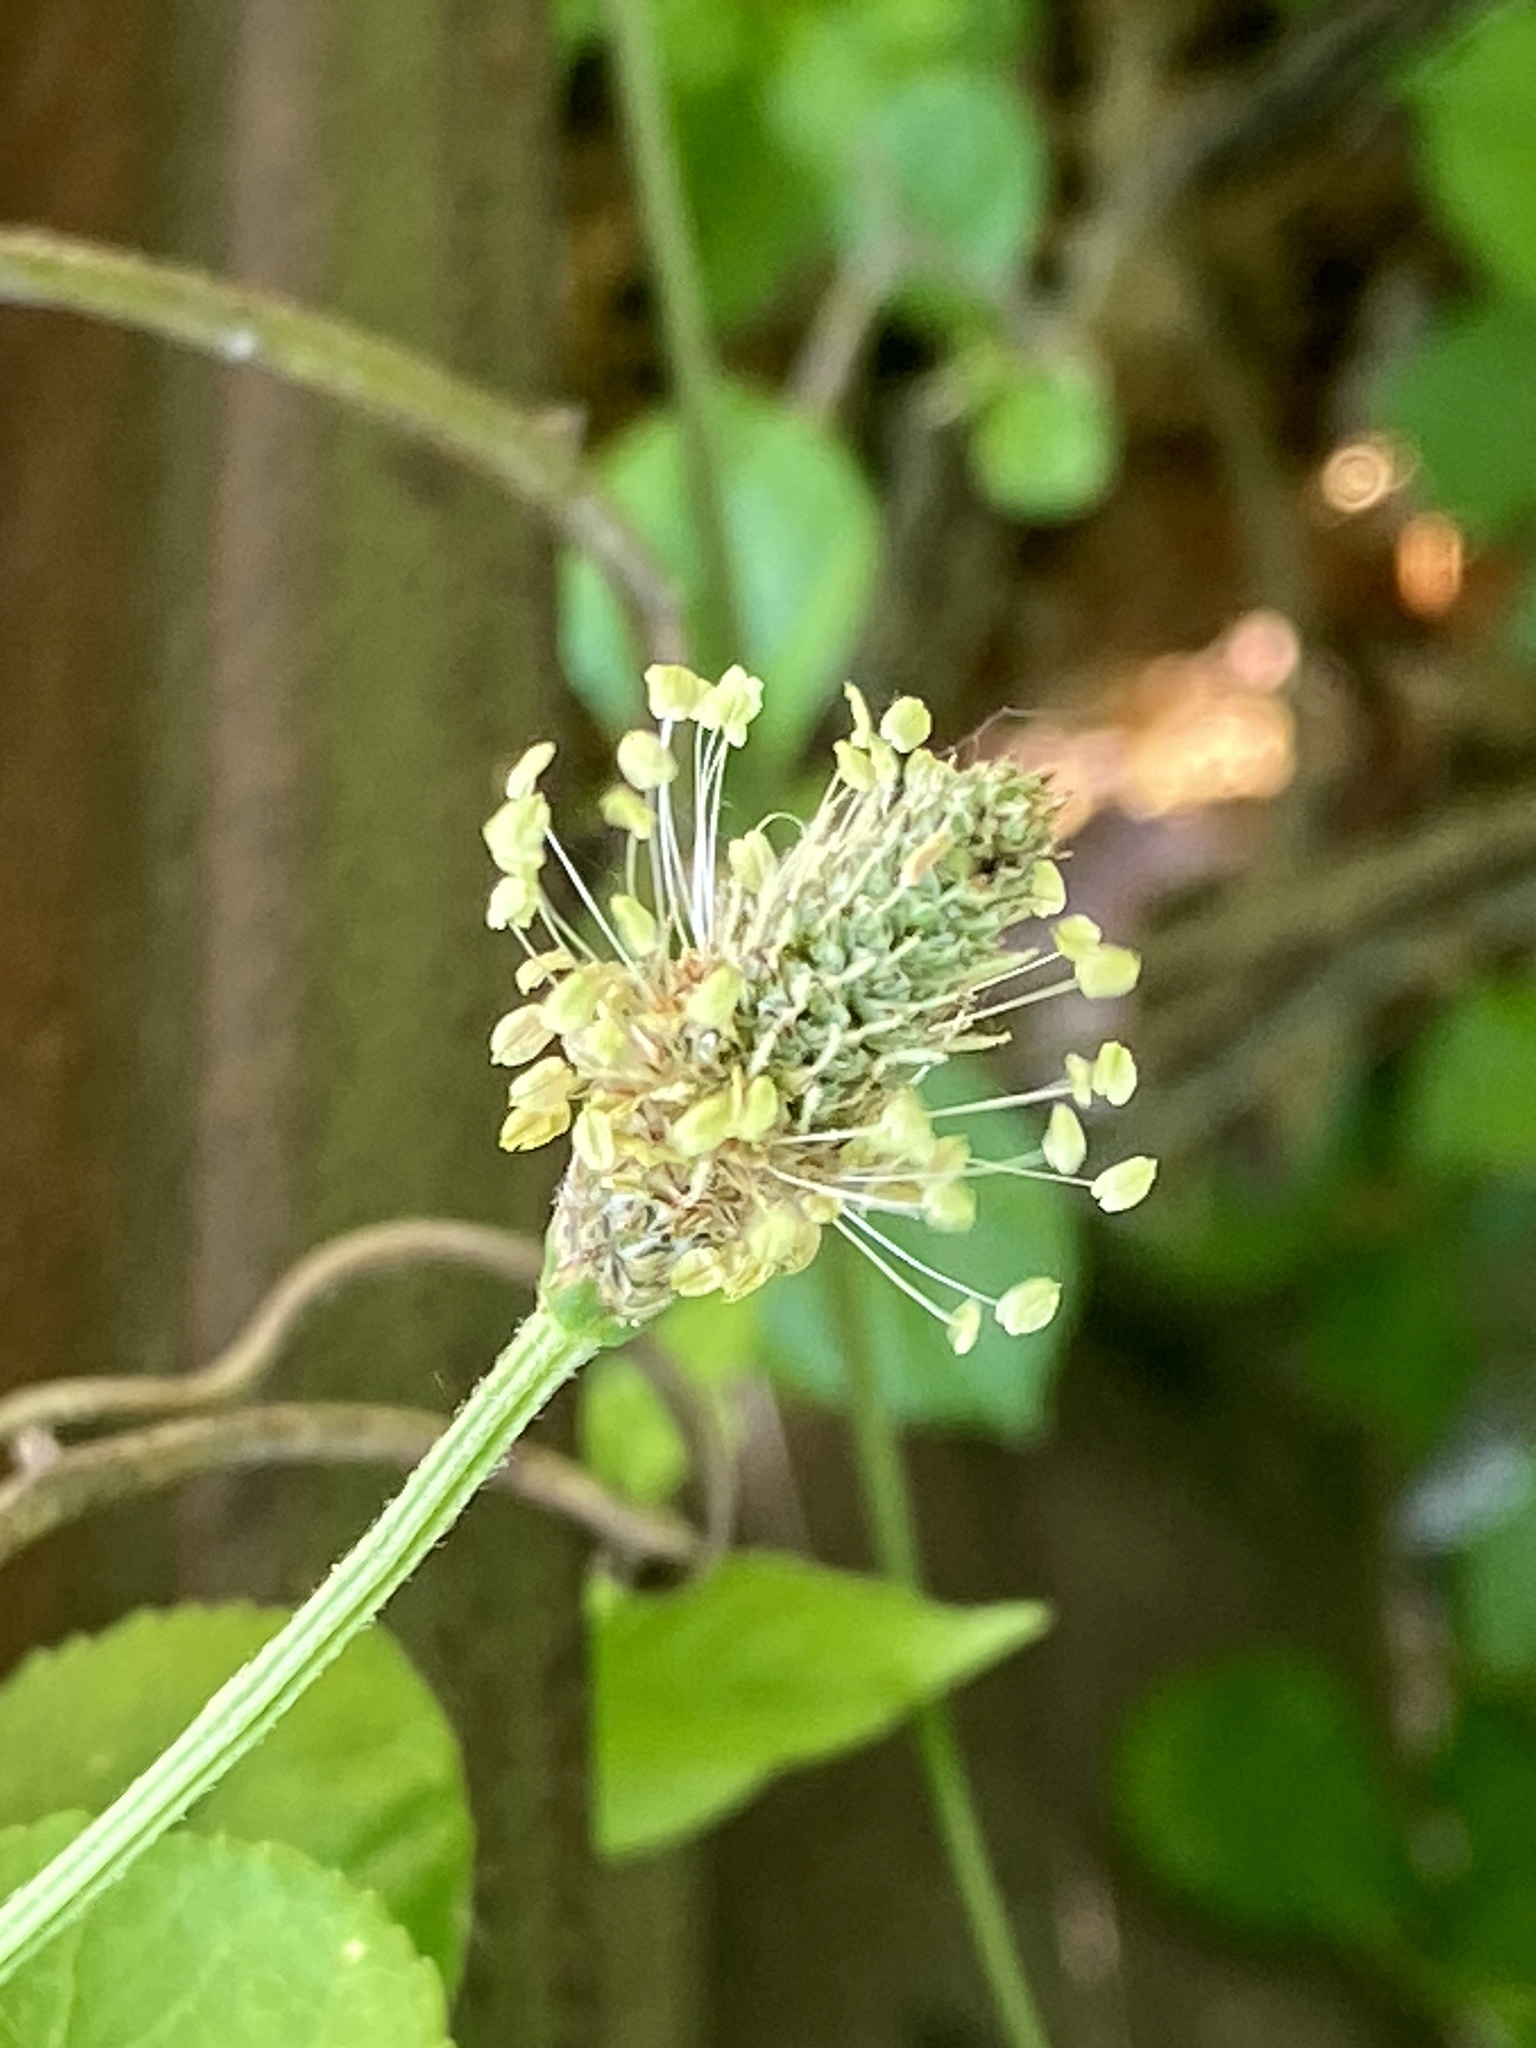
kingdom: Plantae
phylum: Tracheophyta
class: Magnoliopsida
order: Lamiales
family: Plantaginaceae
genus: Plantago
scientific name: Plantago lanceolata
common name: Ribwort plantain
